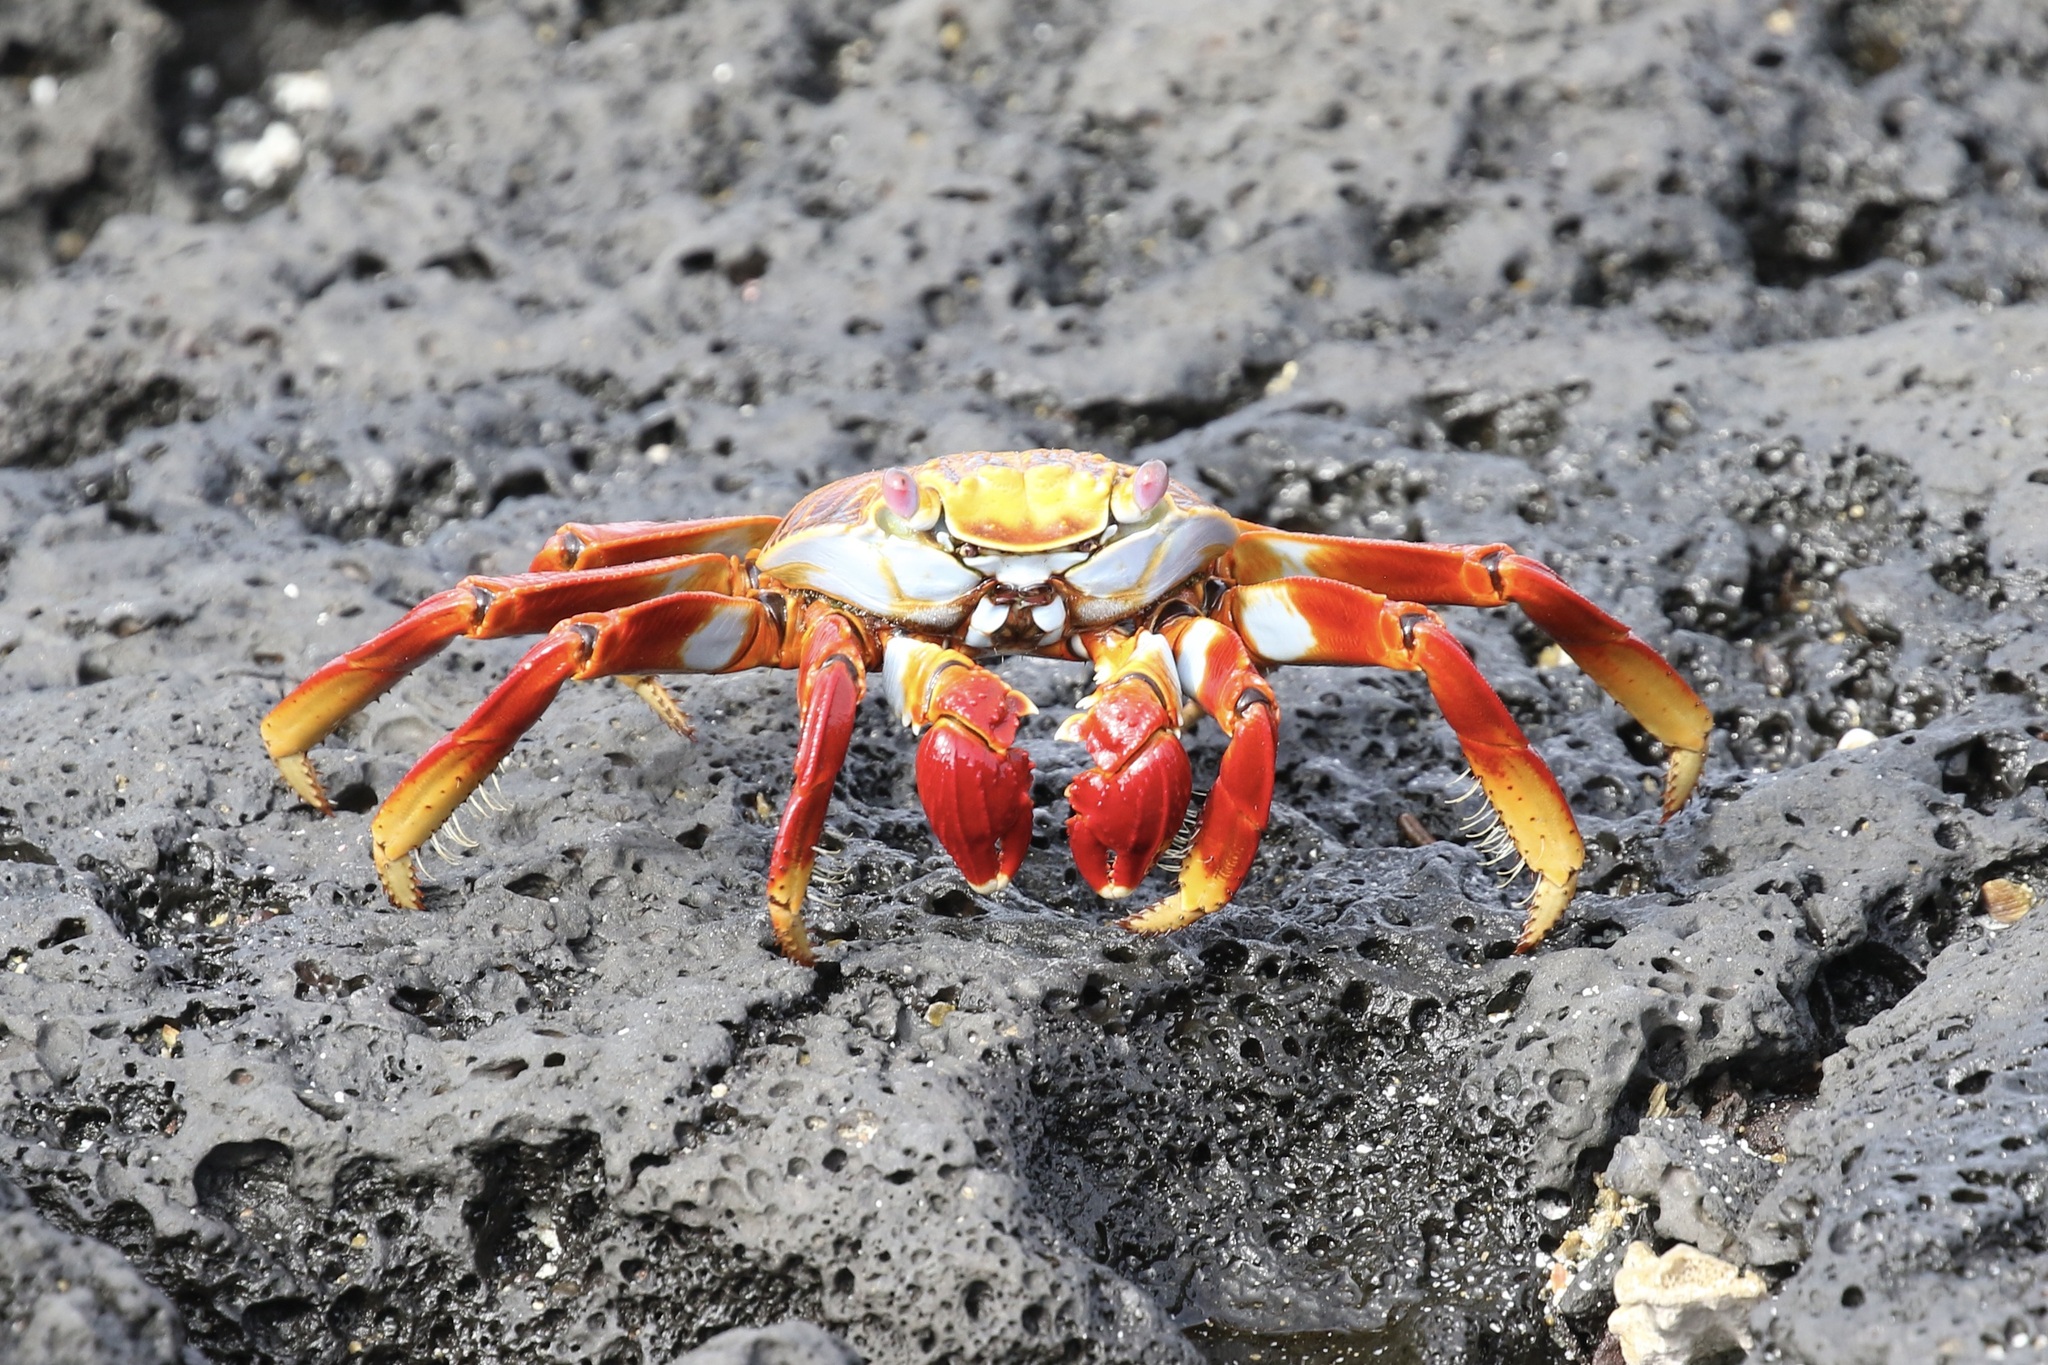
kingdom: Animalia
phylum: Arthropoda
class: Malacostraca
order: Decapoda
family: Grapsidae
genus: Grapsus
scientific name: Grapsus grapsus
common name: Sally lightfoot
